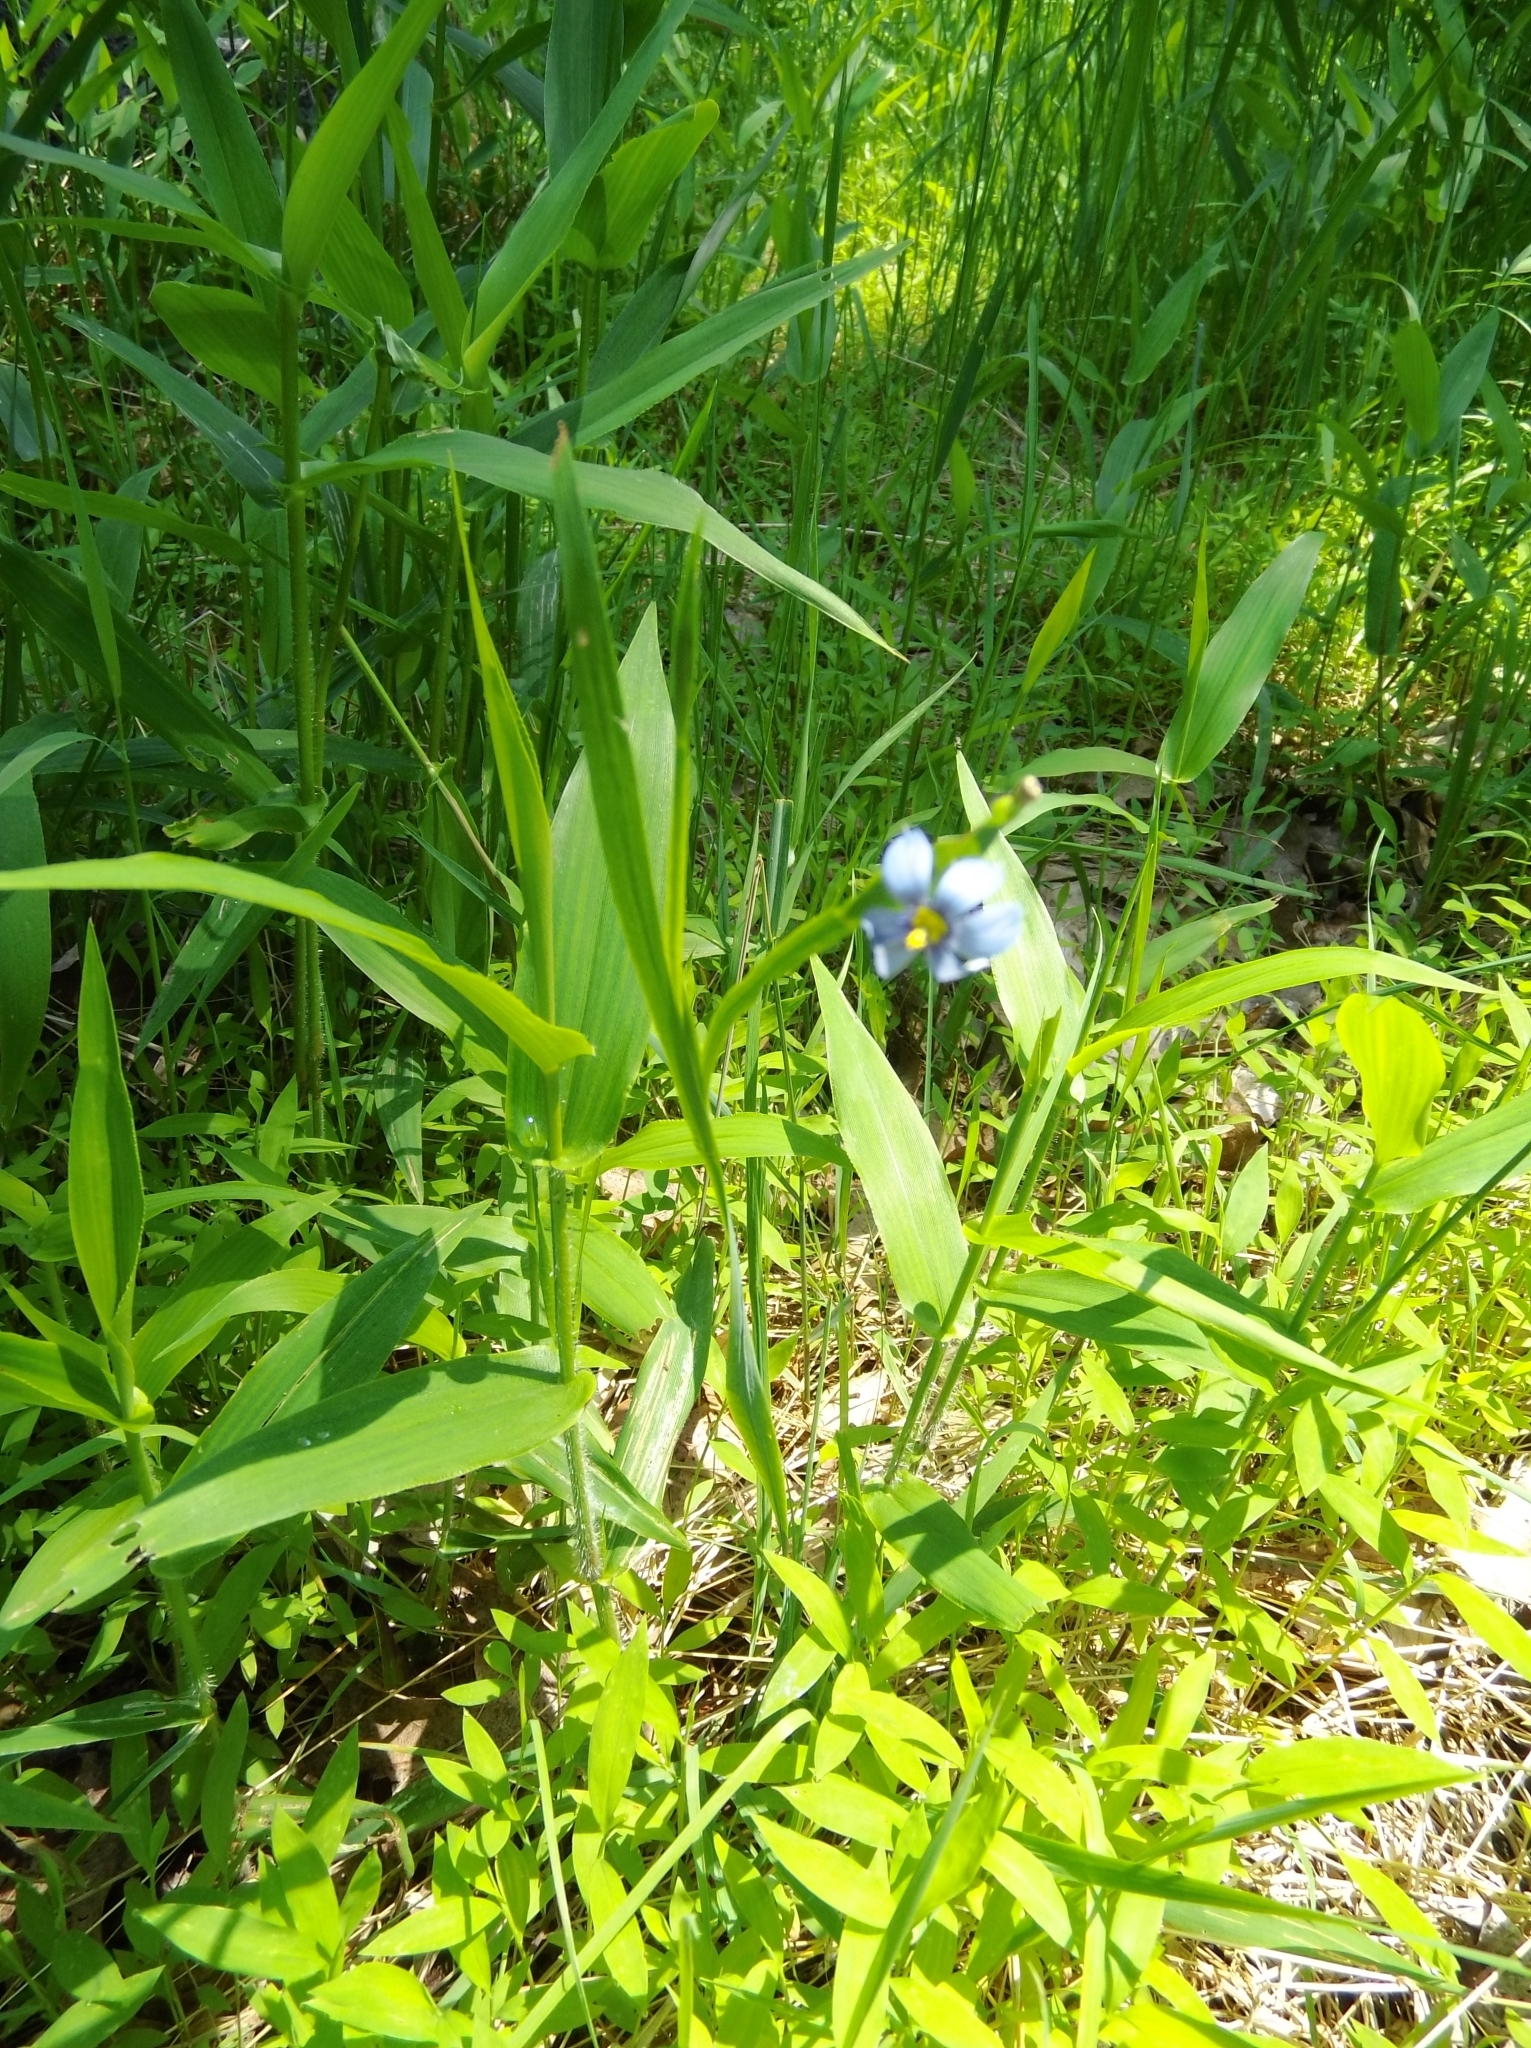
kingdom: Plantae
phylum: Tracheophyta
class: Liliopsida
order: Asparagales
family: Iridaceae
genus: Sisyrinchium
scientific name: Sisyrinchium angustifolium
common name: Narrow-leaf blue-eyed-grass
